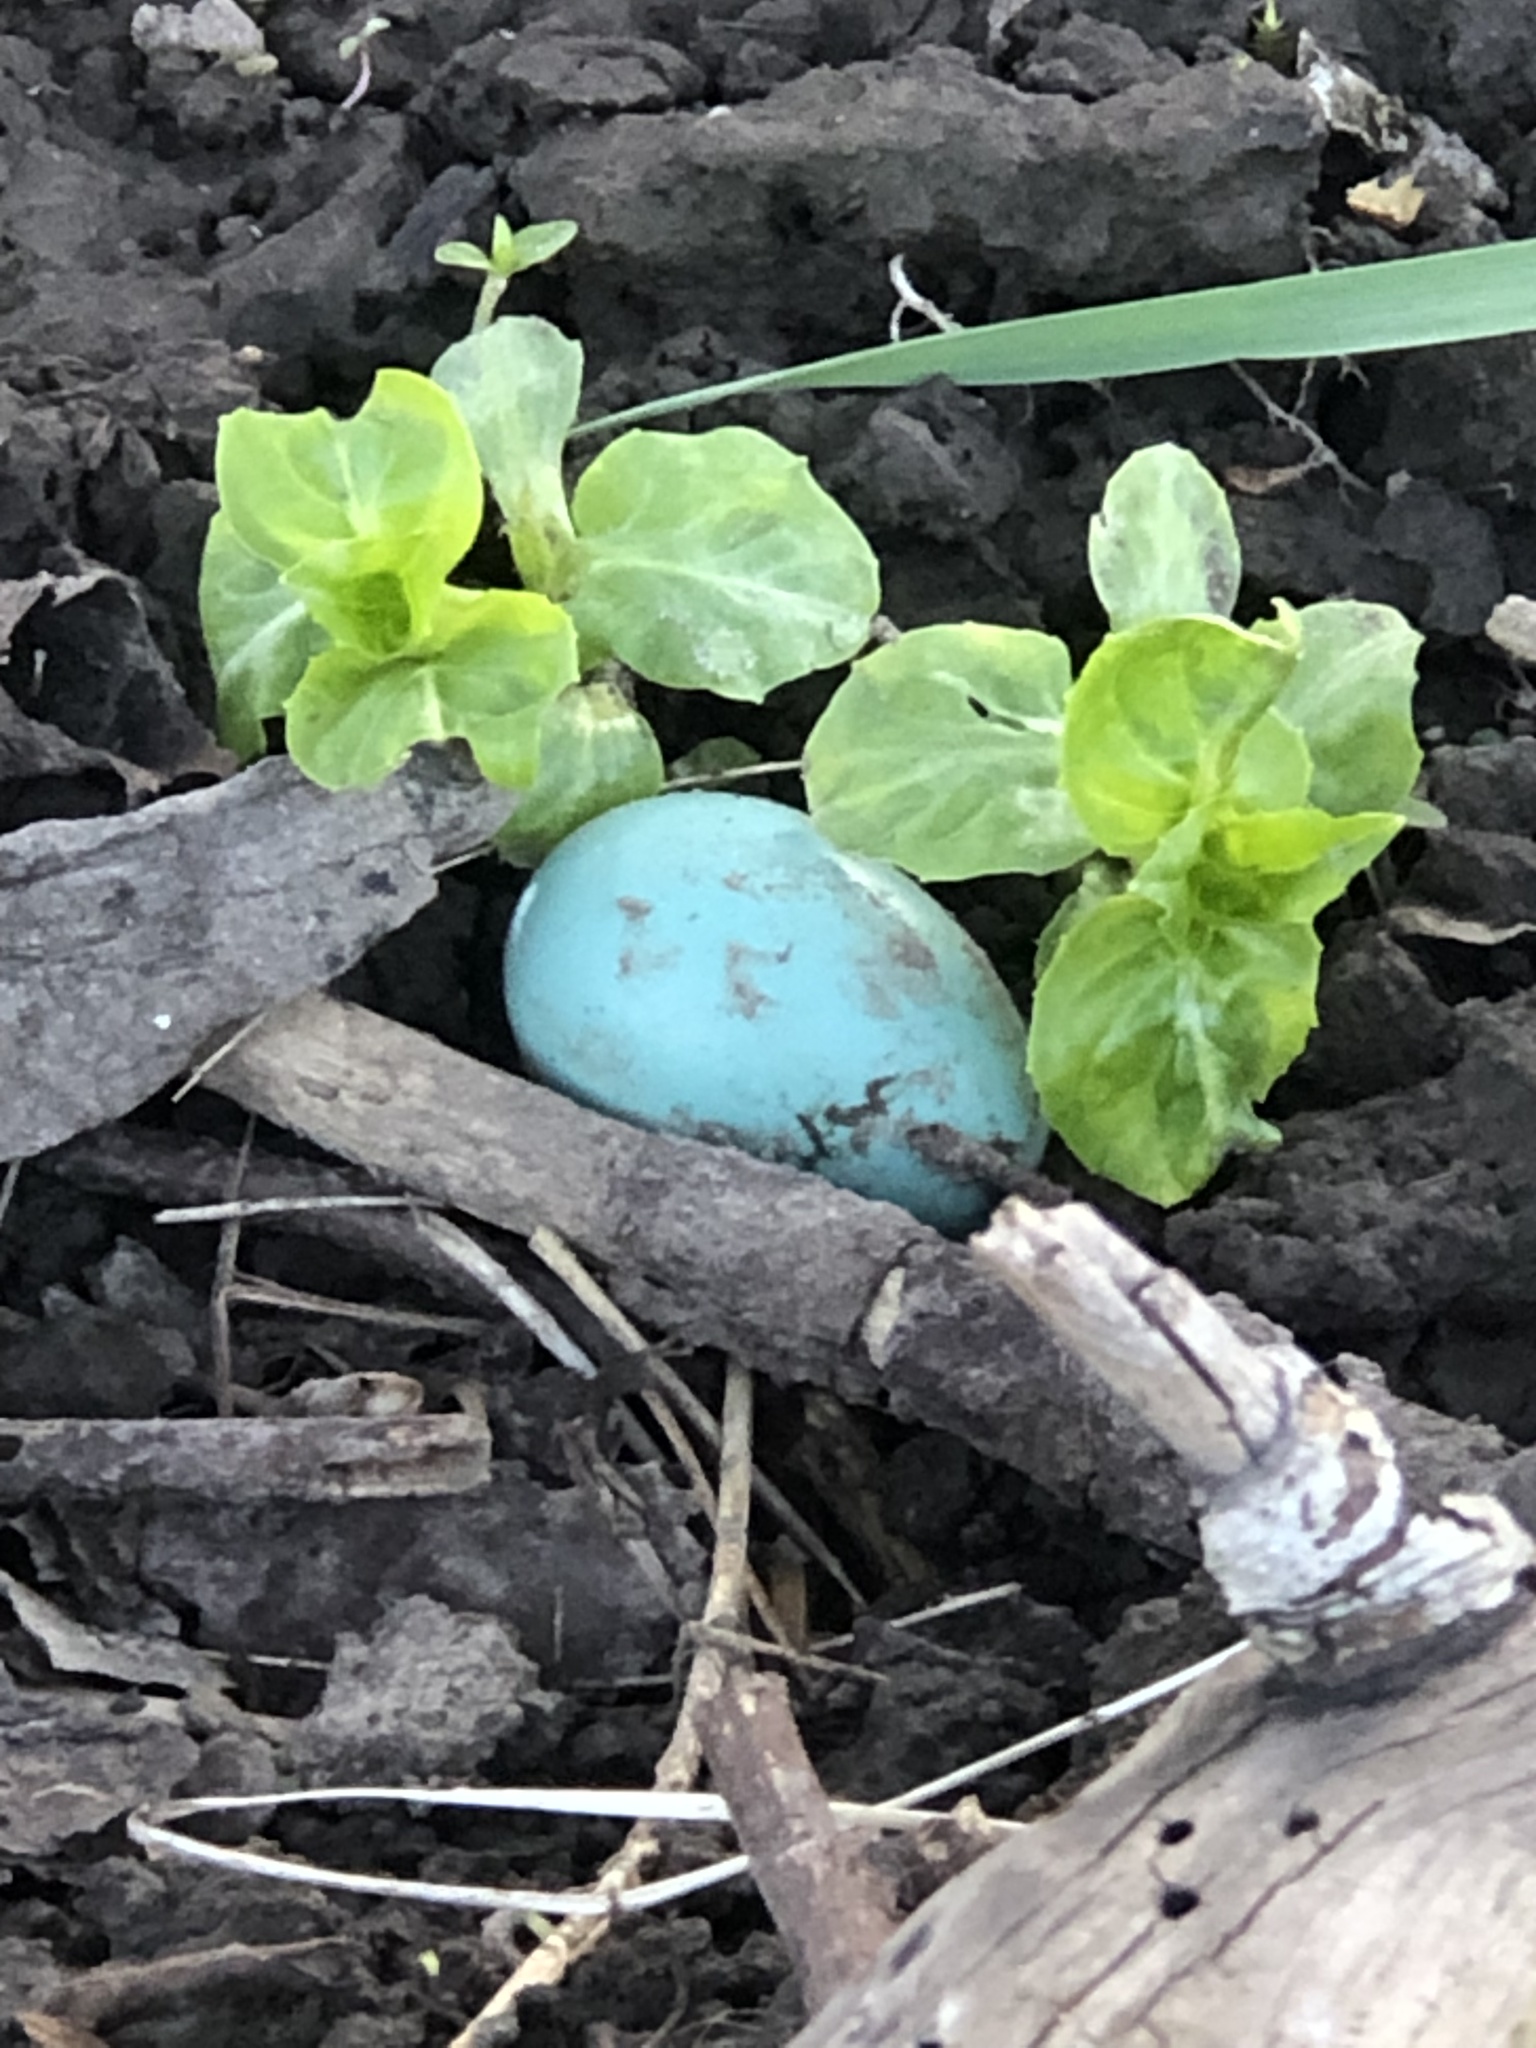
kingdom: Animalia
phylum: Chordata
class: Aves
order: Passeriformes
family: Turdidae
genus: Turdus
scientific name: Turdus migratorius
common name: American robin
